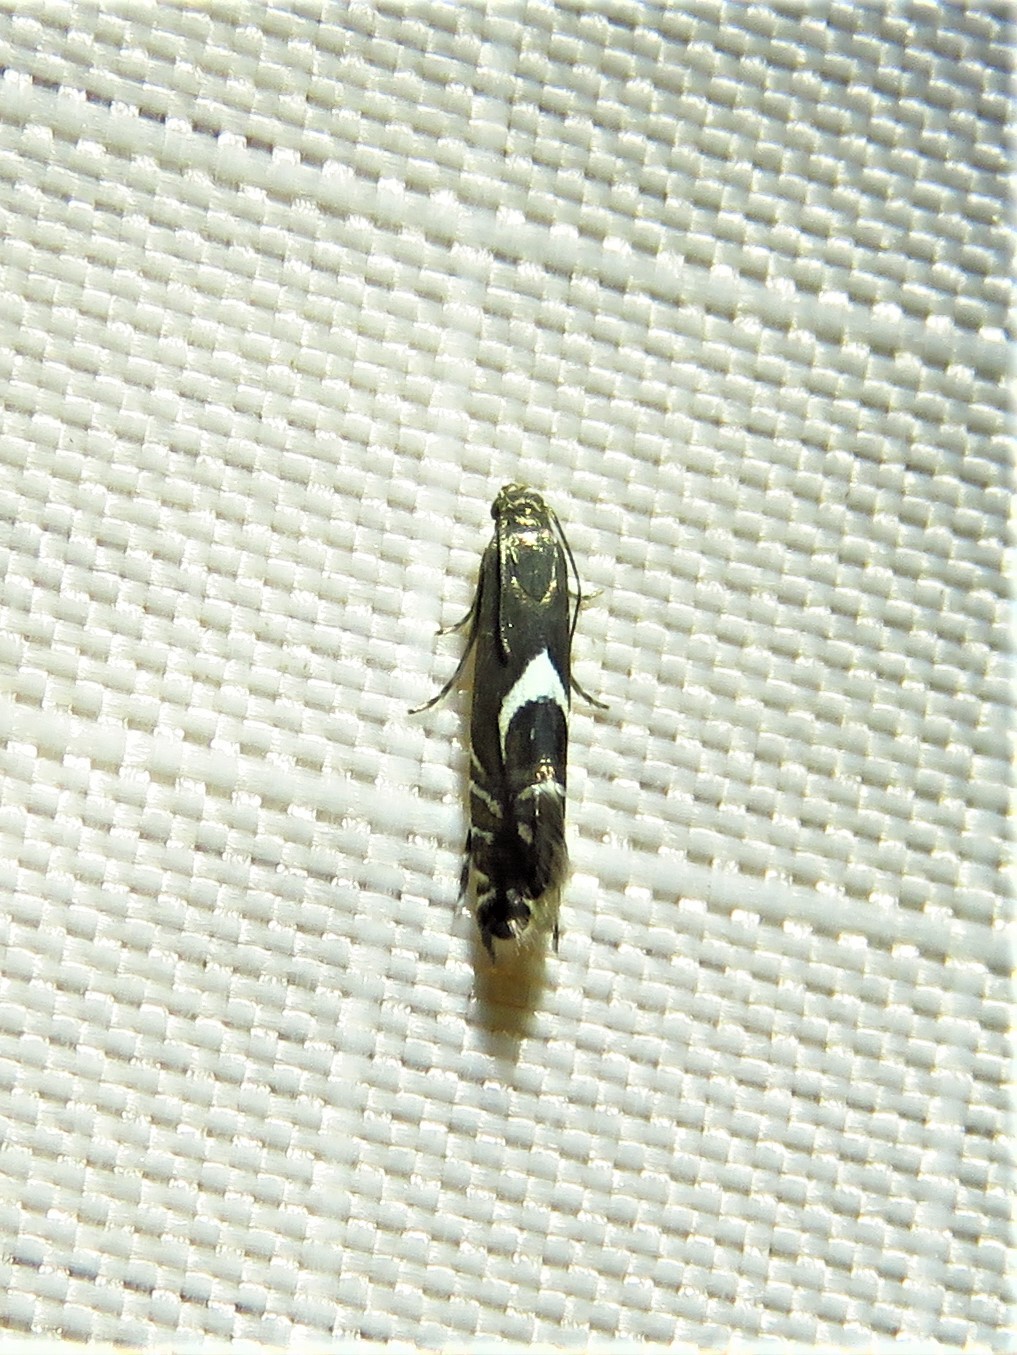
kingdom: Animalia
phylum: Arthropoda
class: Insecta
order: Lepidoptera
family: Glyphipterigidae
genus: Glyphipterix
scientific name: Glyphipterix Diploschizia impigritella
